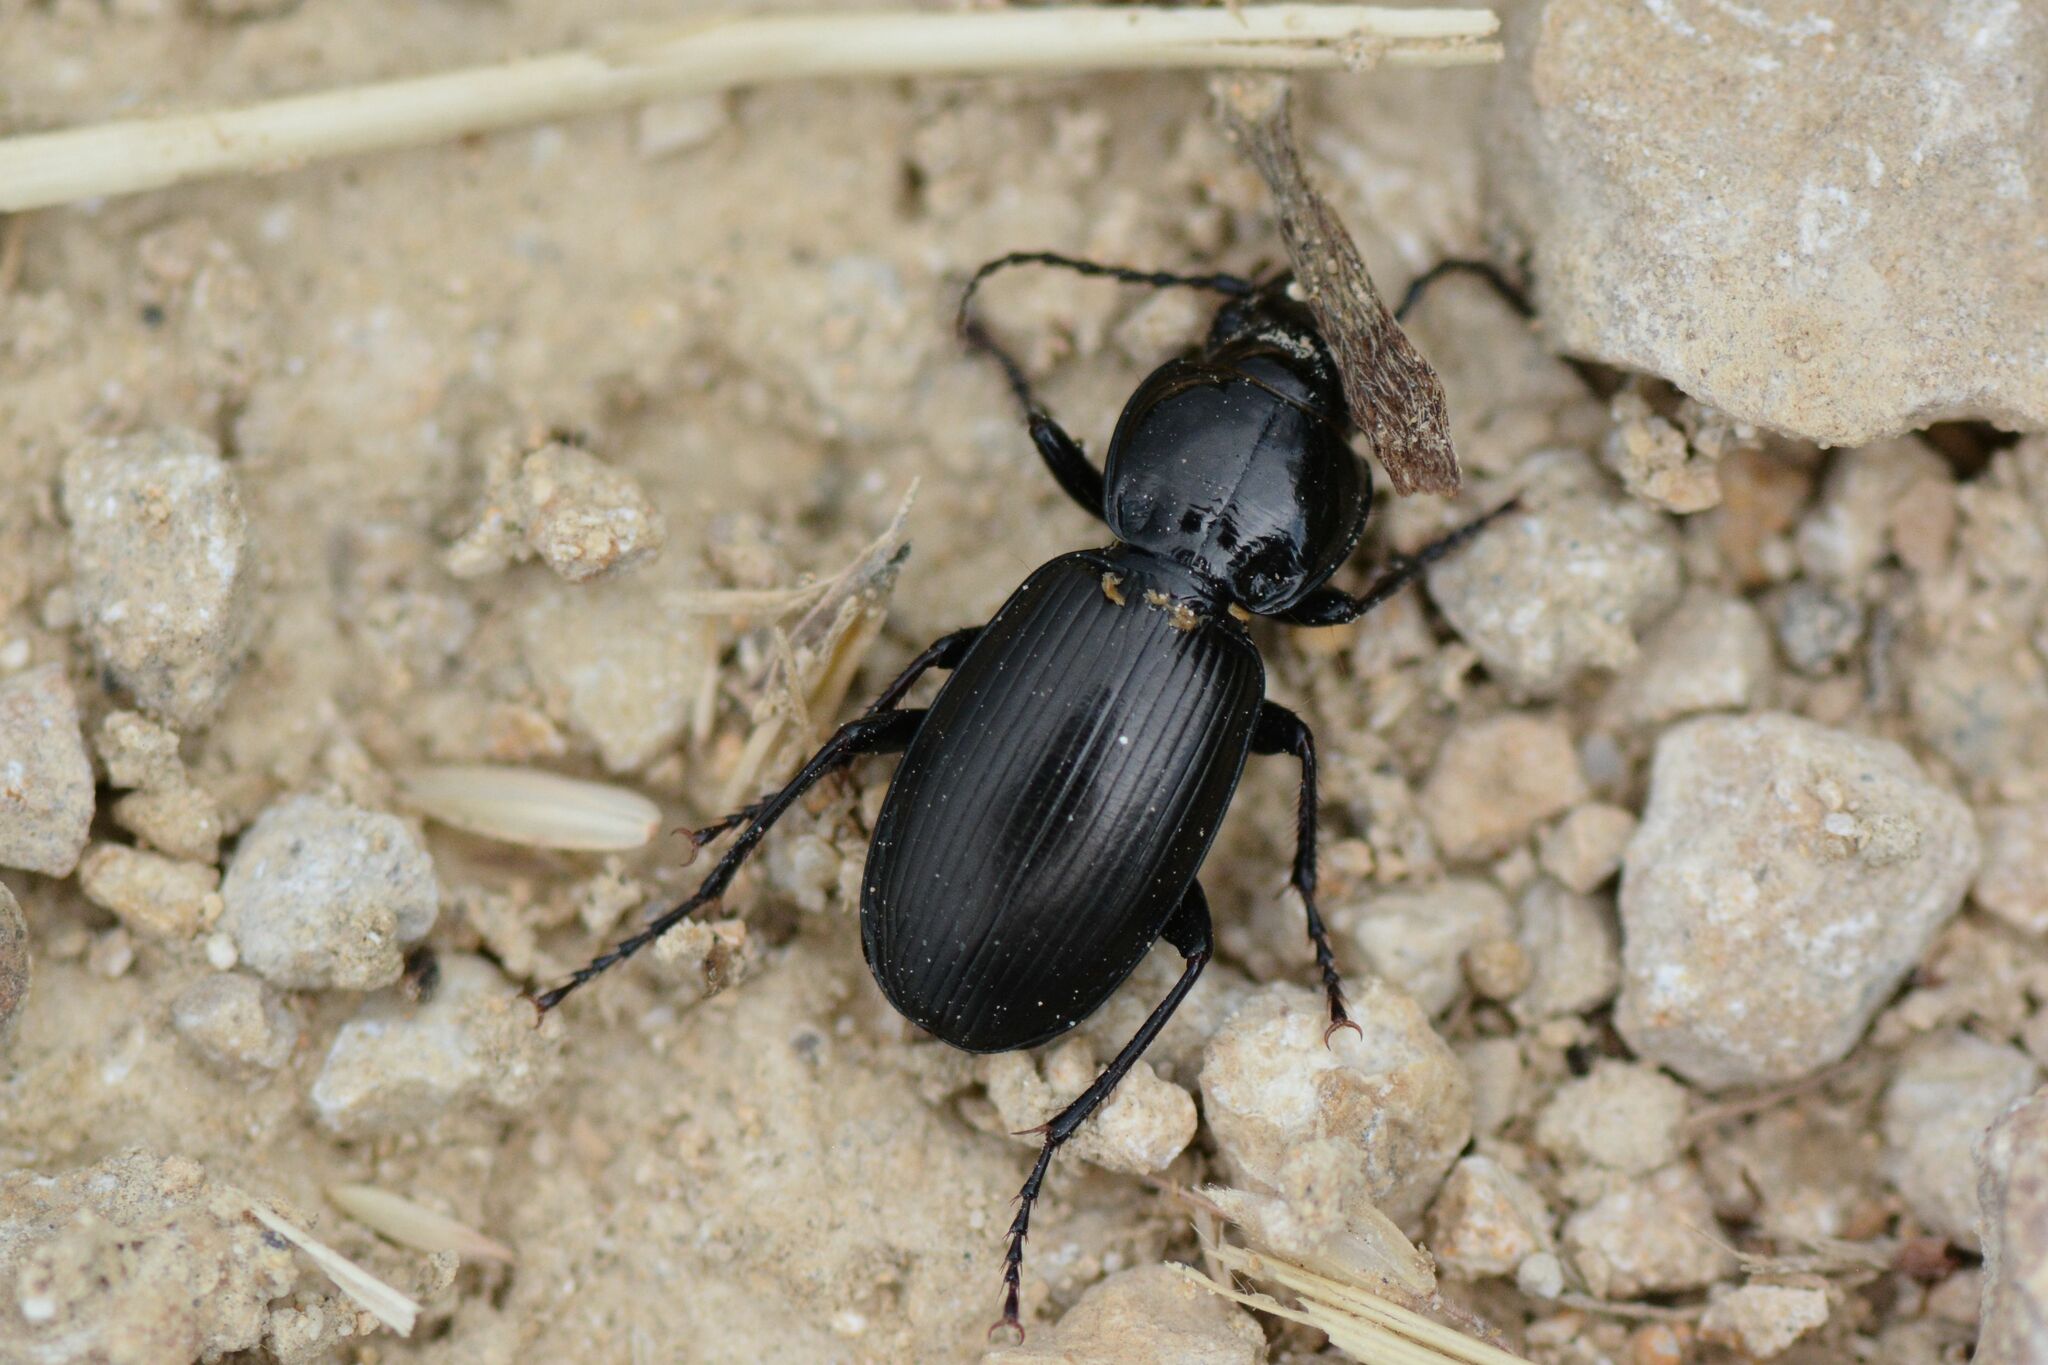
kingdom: Animalia
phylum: Arthropoda
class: Insecta
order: Coleoptera
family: Carabidae
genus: Pterostichus
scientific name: Pterostichus madidus
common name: Black clock
